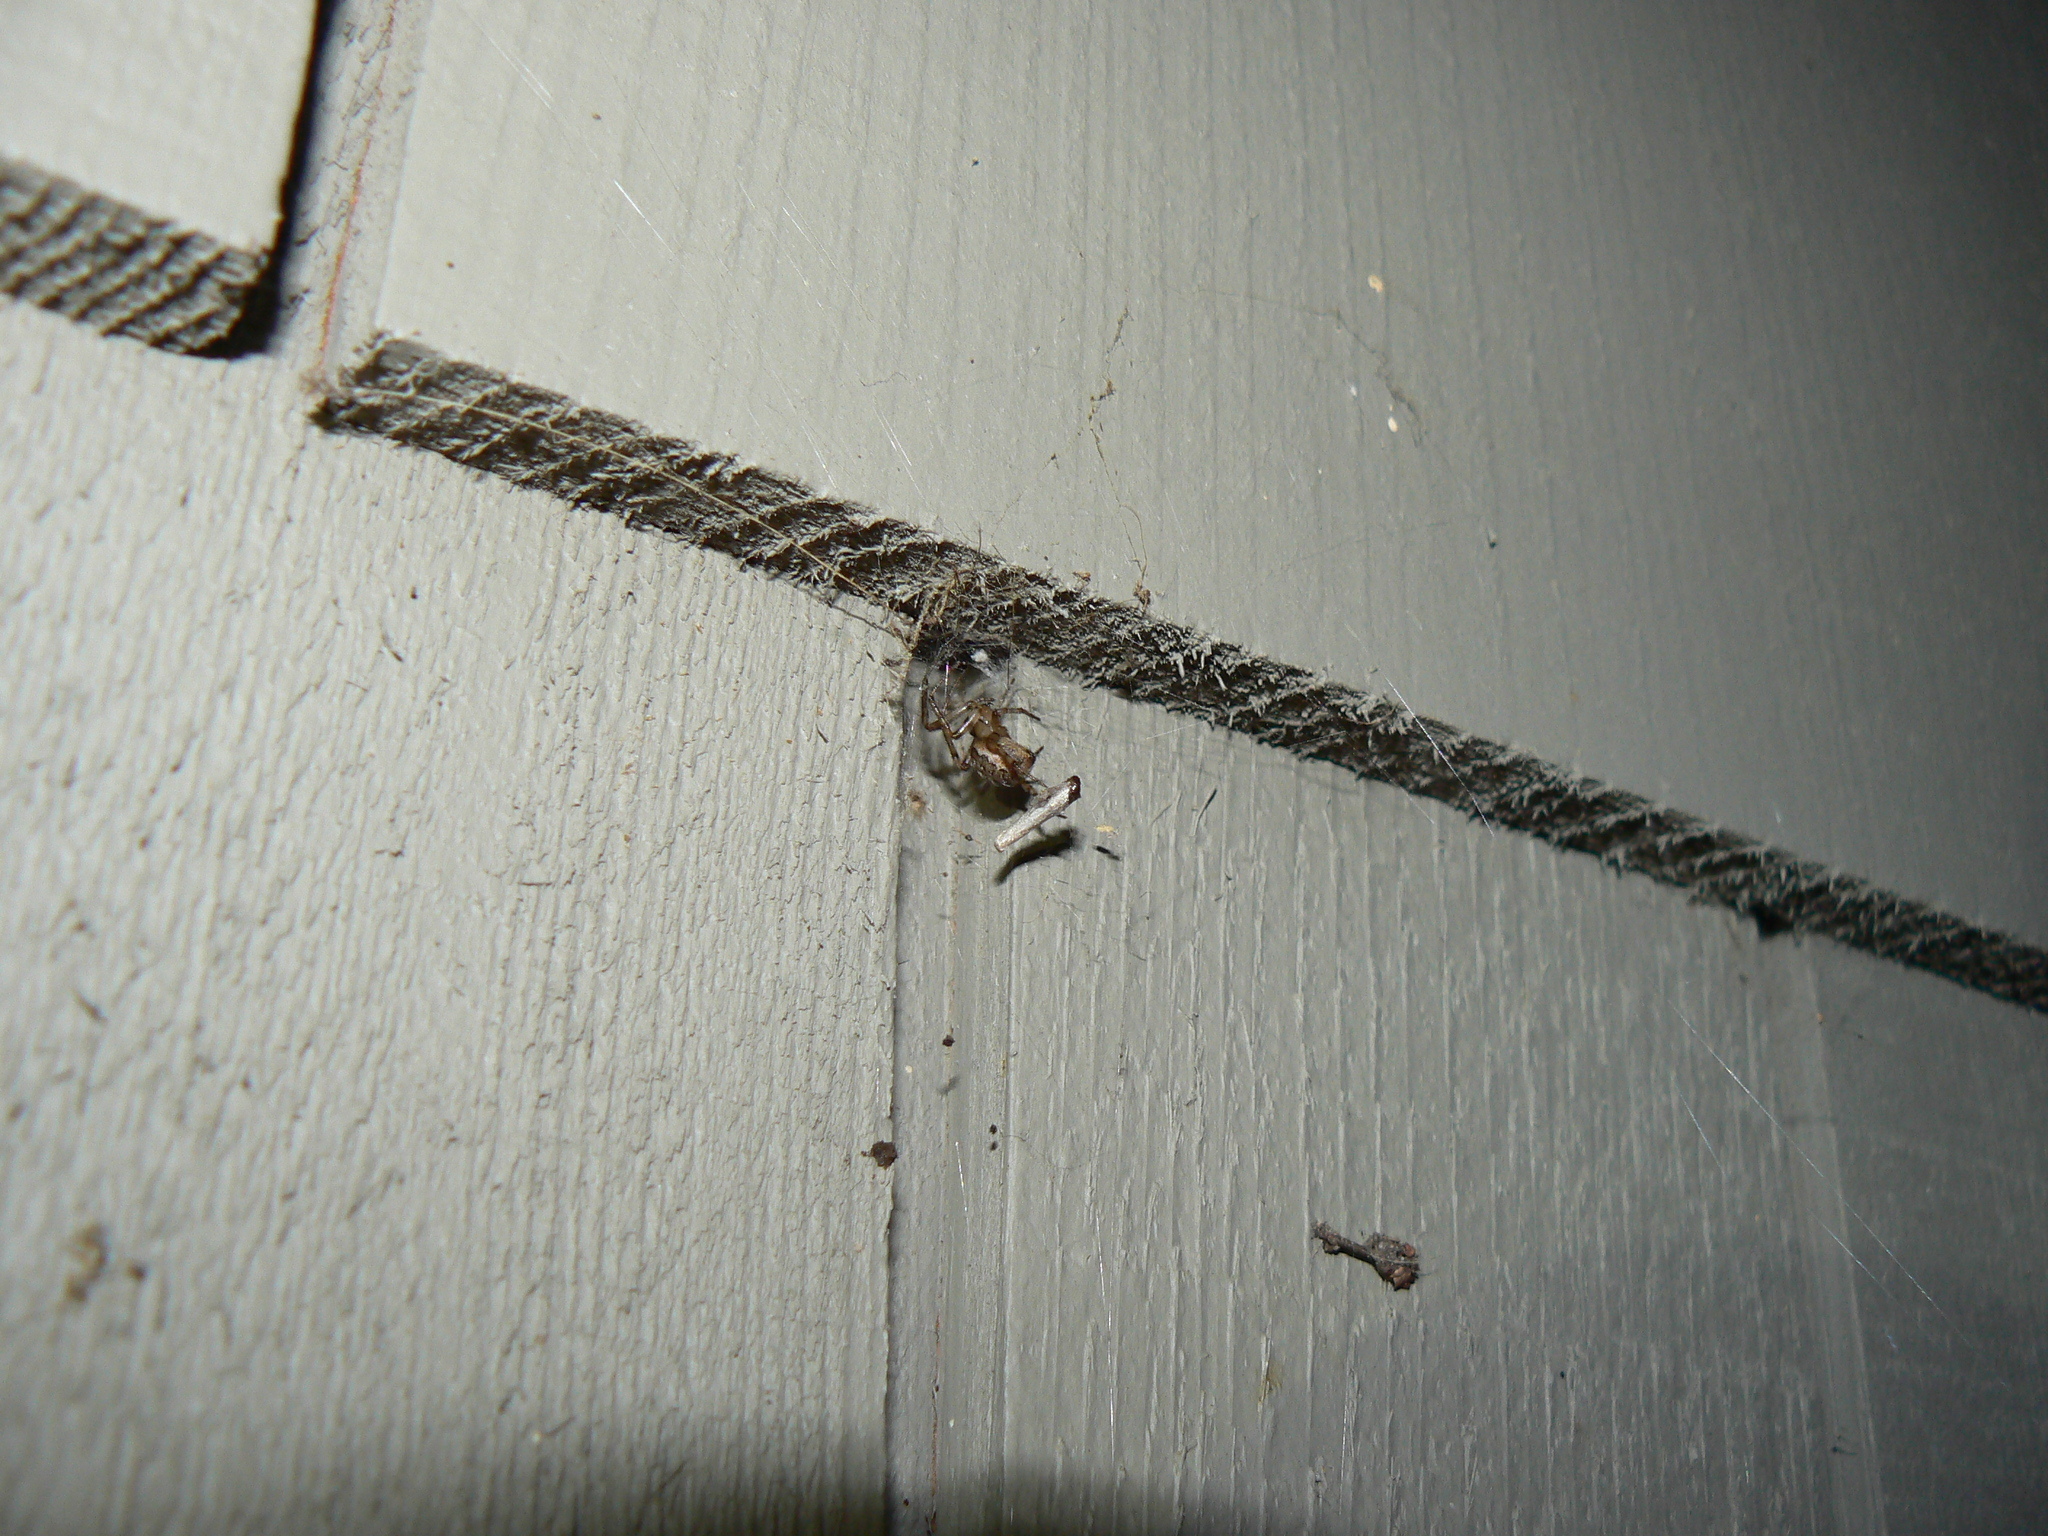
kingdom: Animalia
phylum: Arthropoda
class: Arachnida
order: Araneae
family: Araneidae
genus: Zygiella
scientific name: Zygiella x-notata
